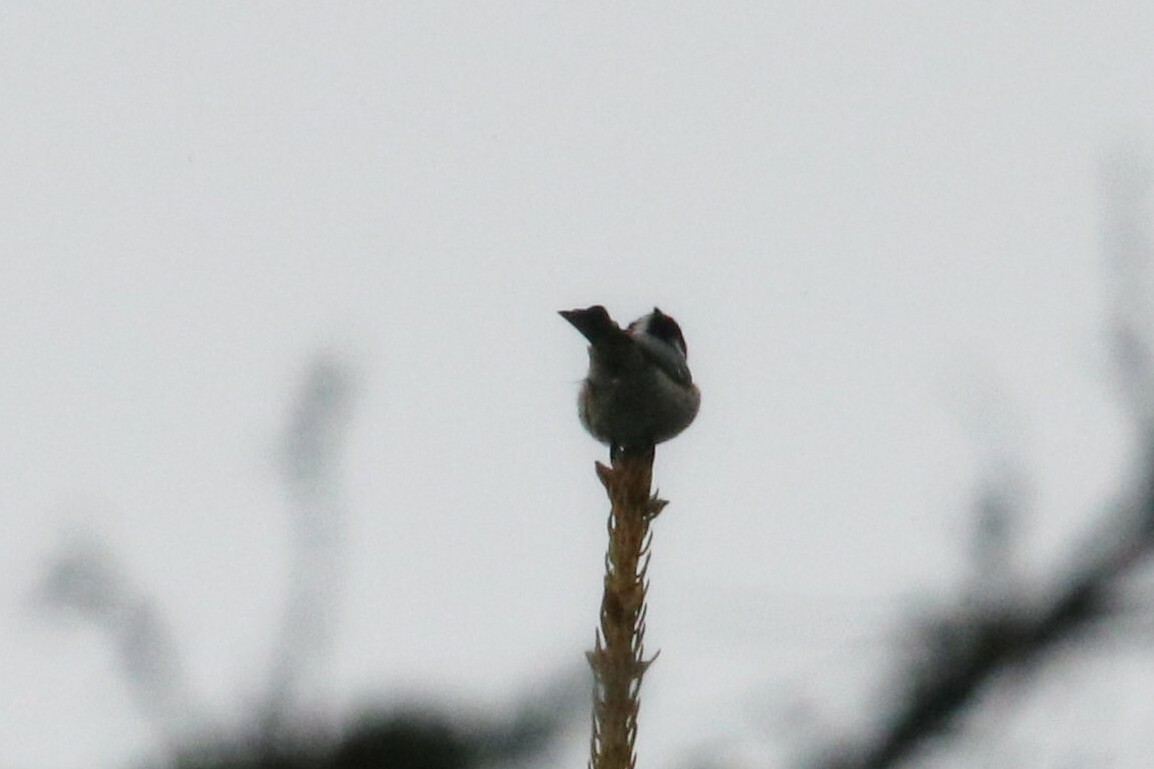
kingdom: Animalia
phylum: Chordata
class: Aves
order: Passeriformes
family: Paridae
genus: Periparus
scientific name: Periparus ater
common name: Coal tit
